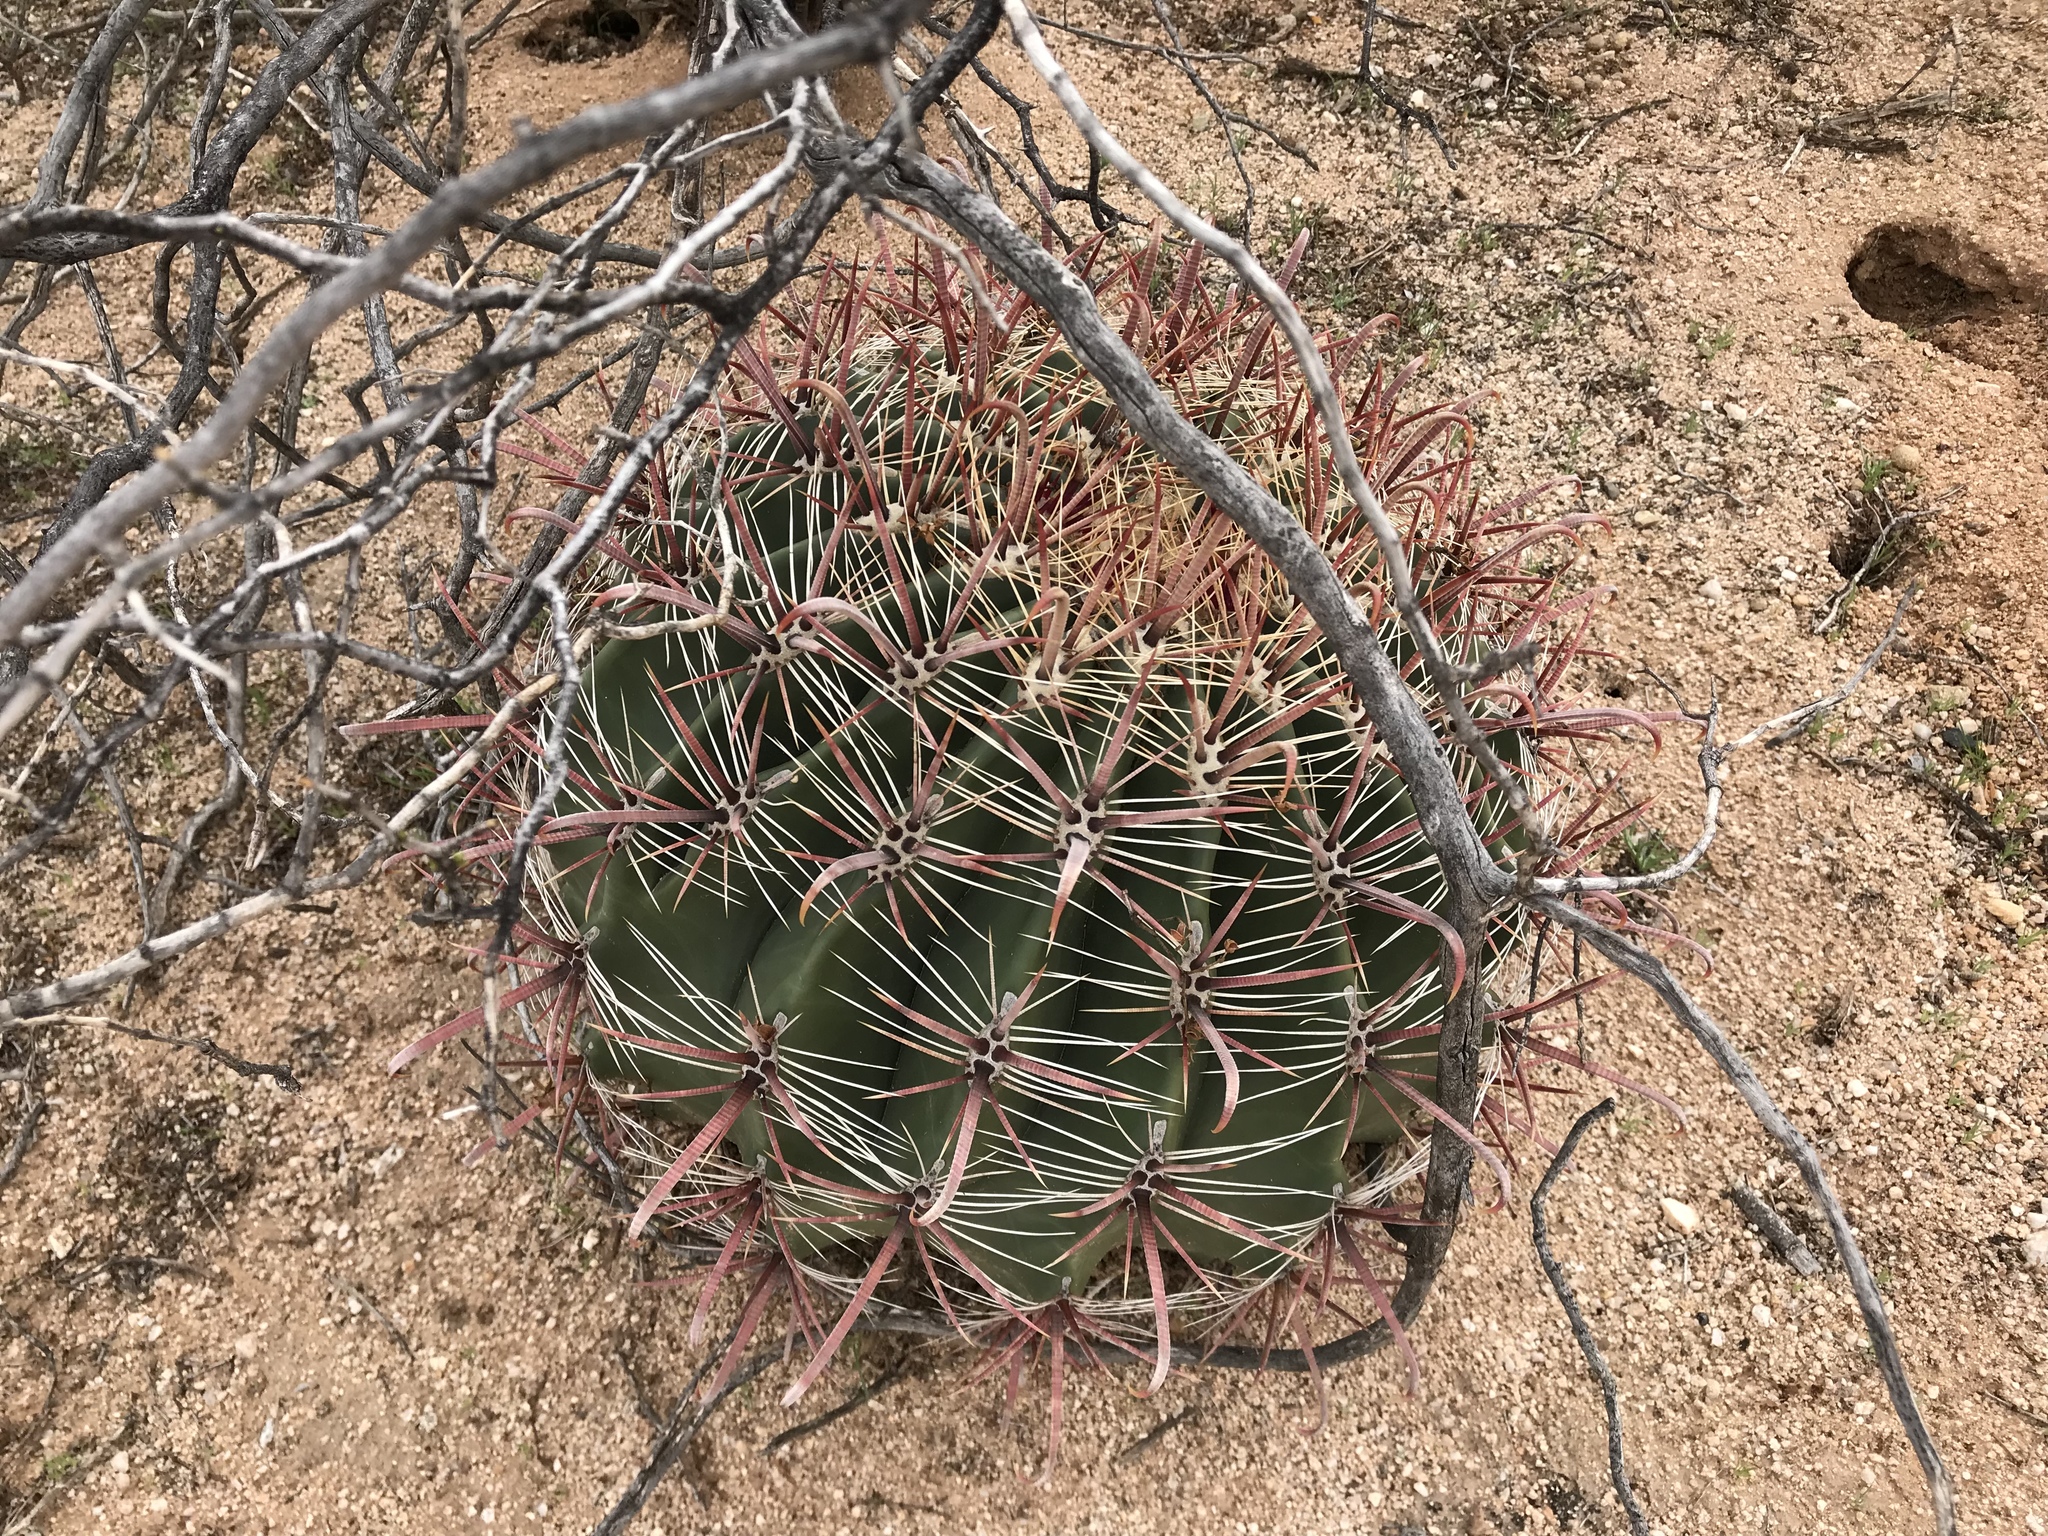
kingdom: Plantae
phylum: Tracheophyta
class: Magnoliopsida
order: Caryophyllales
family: Cactaceae
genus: Ferocactus
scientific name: Ferocactus wislizeni
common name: Candy barrel cactus
